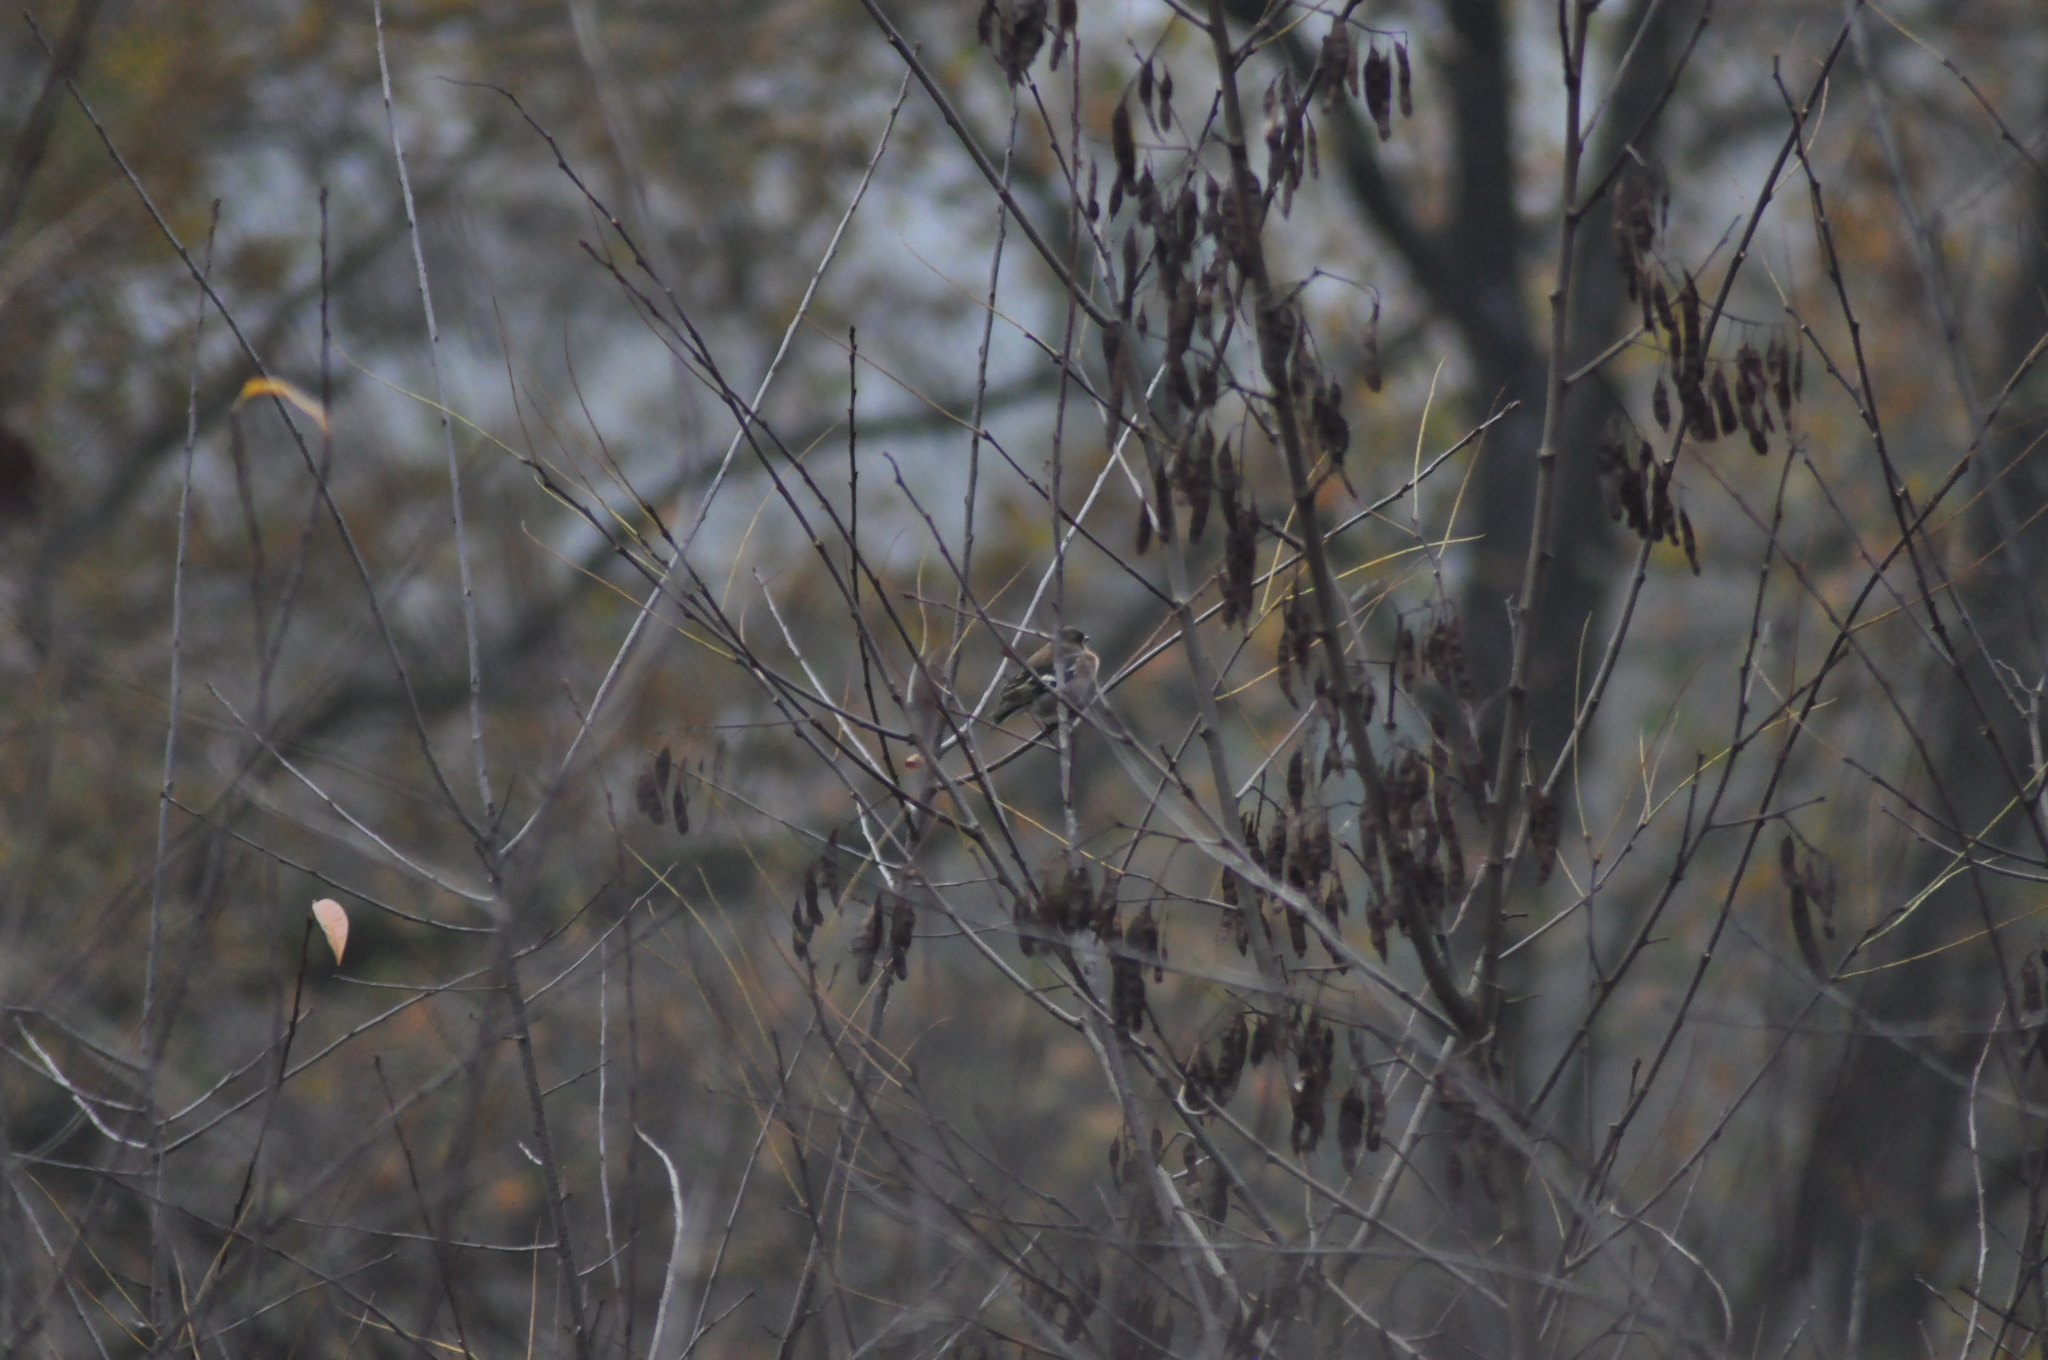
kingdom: Animalia
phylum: Chordata
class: Aves
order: Passeriformes
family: Fringillidae
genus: Fringilla
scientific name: Fringilla coelebs
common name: Common chaffinch
